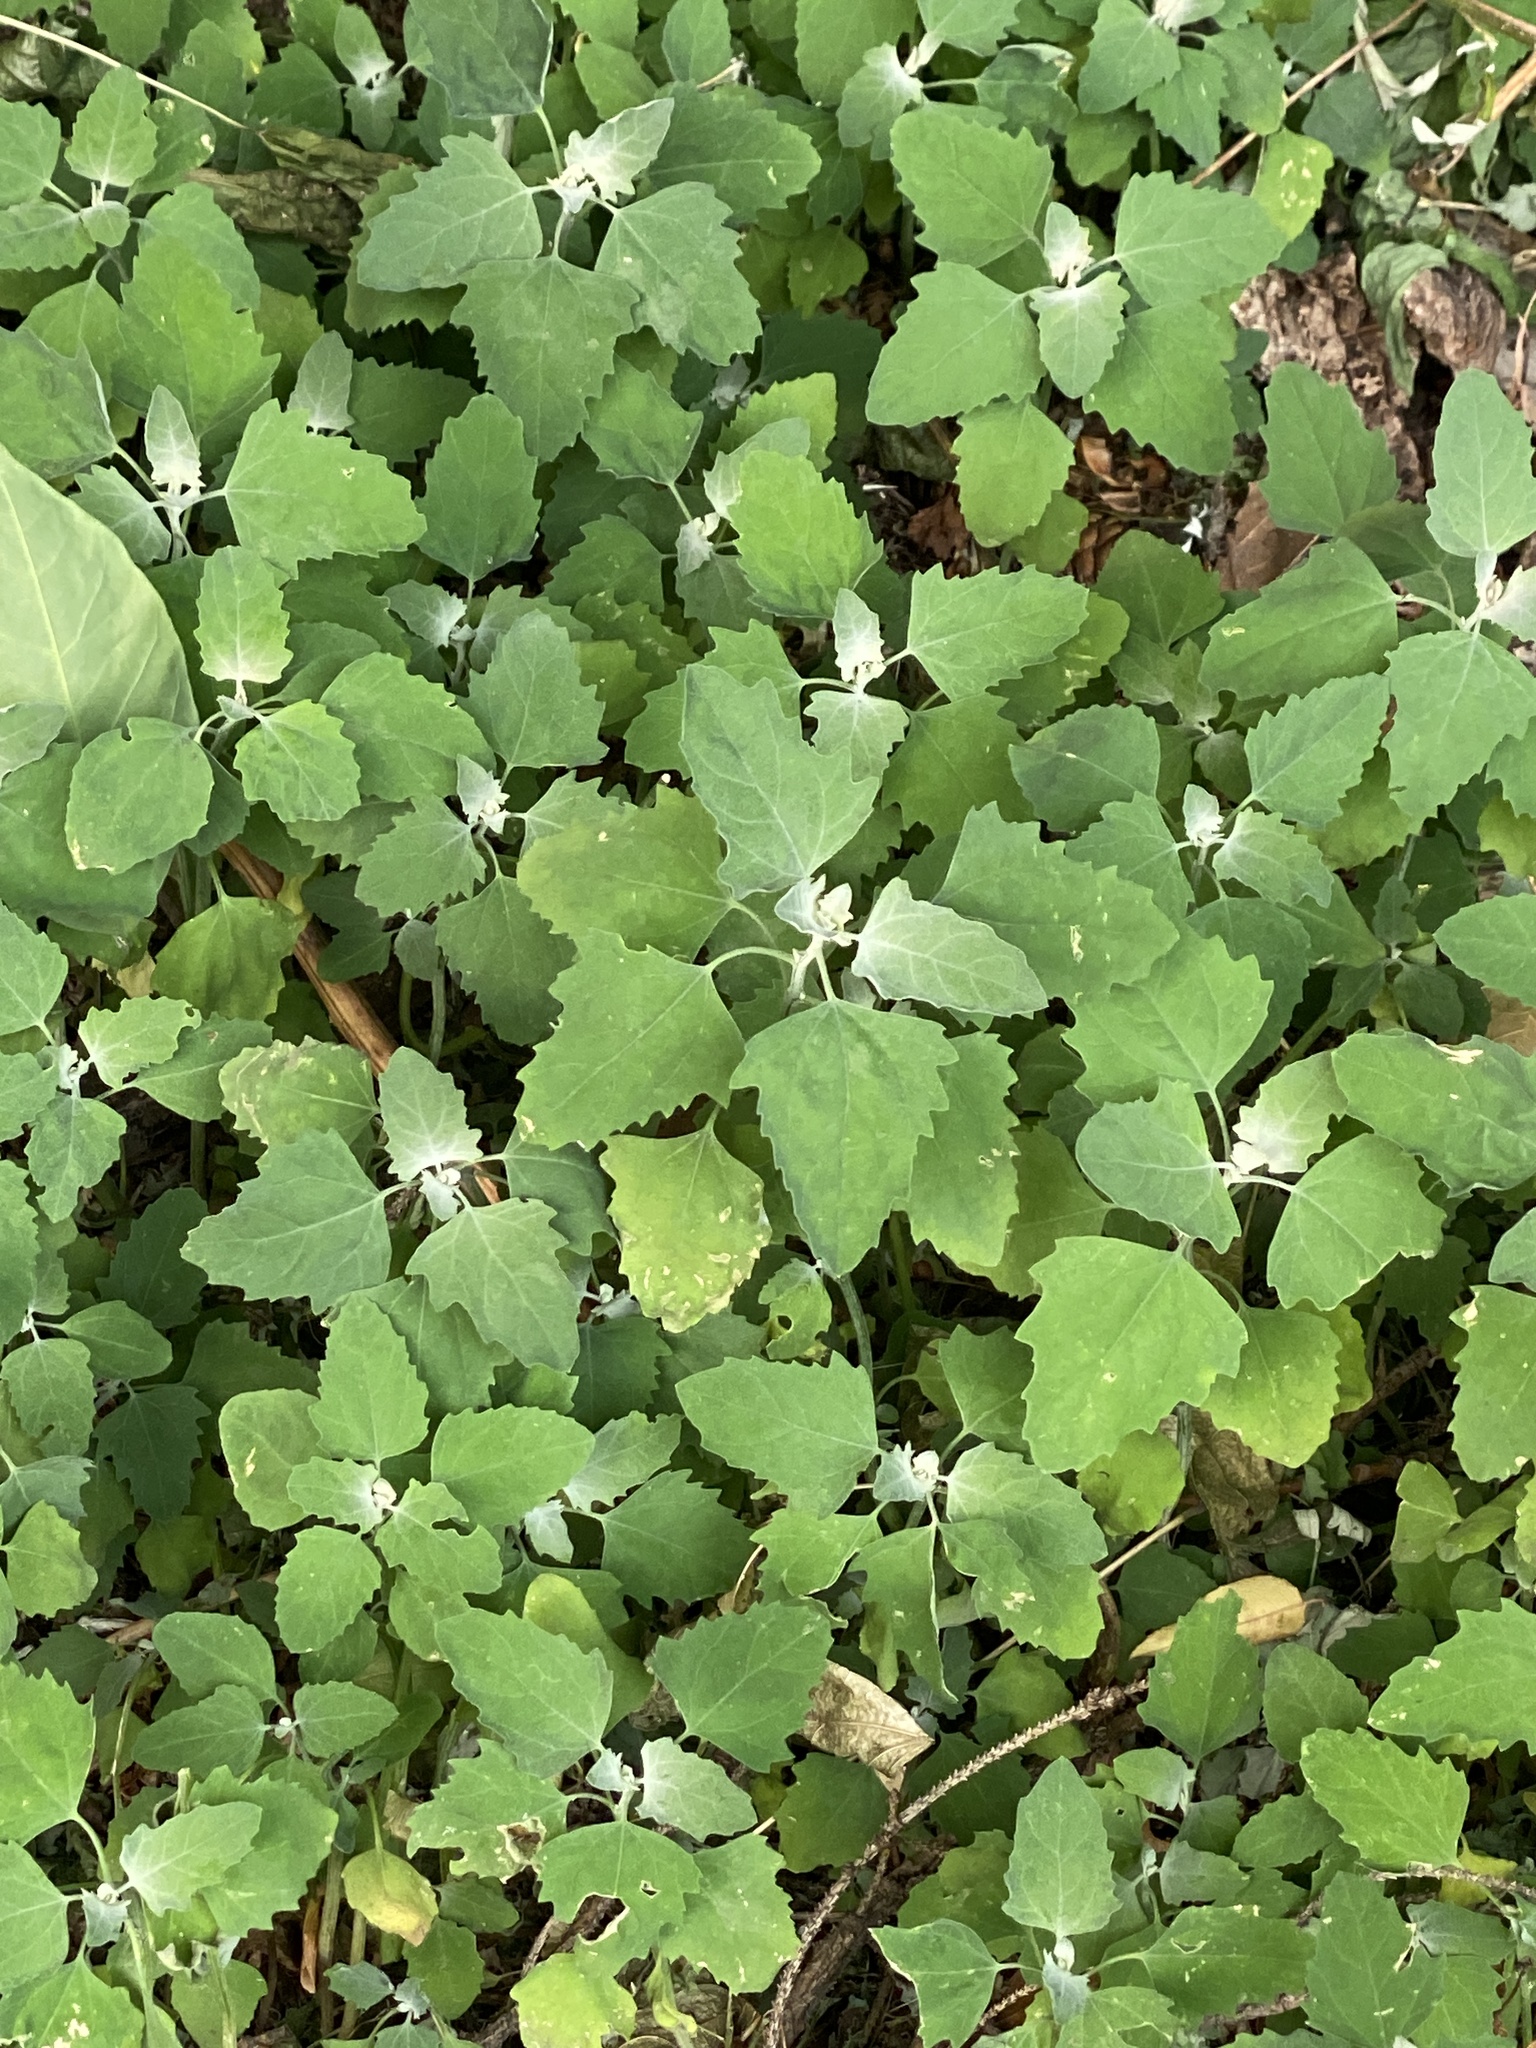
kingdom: Plantae
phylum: Tracheophyta
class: Magnoliopsida
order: Caryophyllales
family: Amaranthaceae
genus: Chenopodium
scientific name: Chenopodium album
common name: Fat-hen
